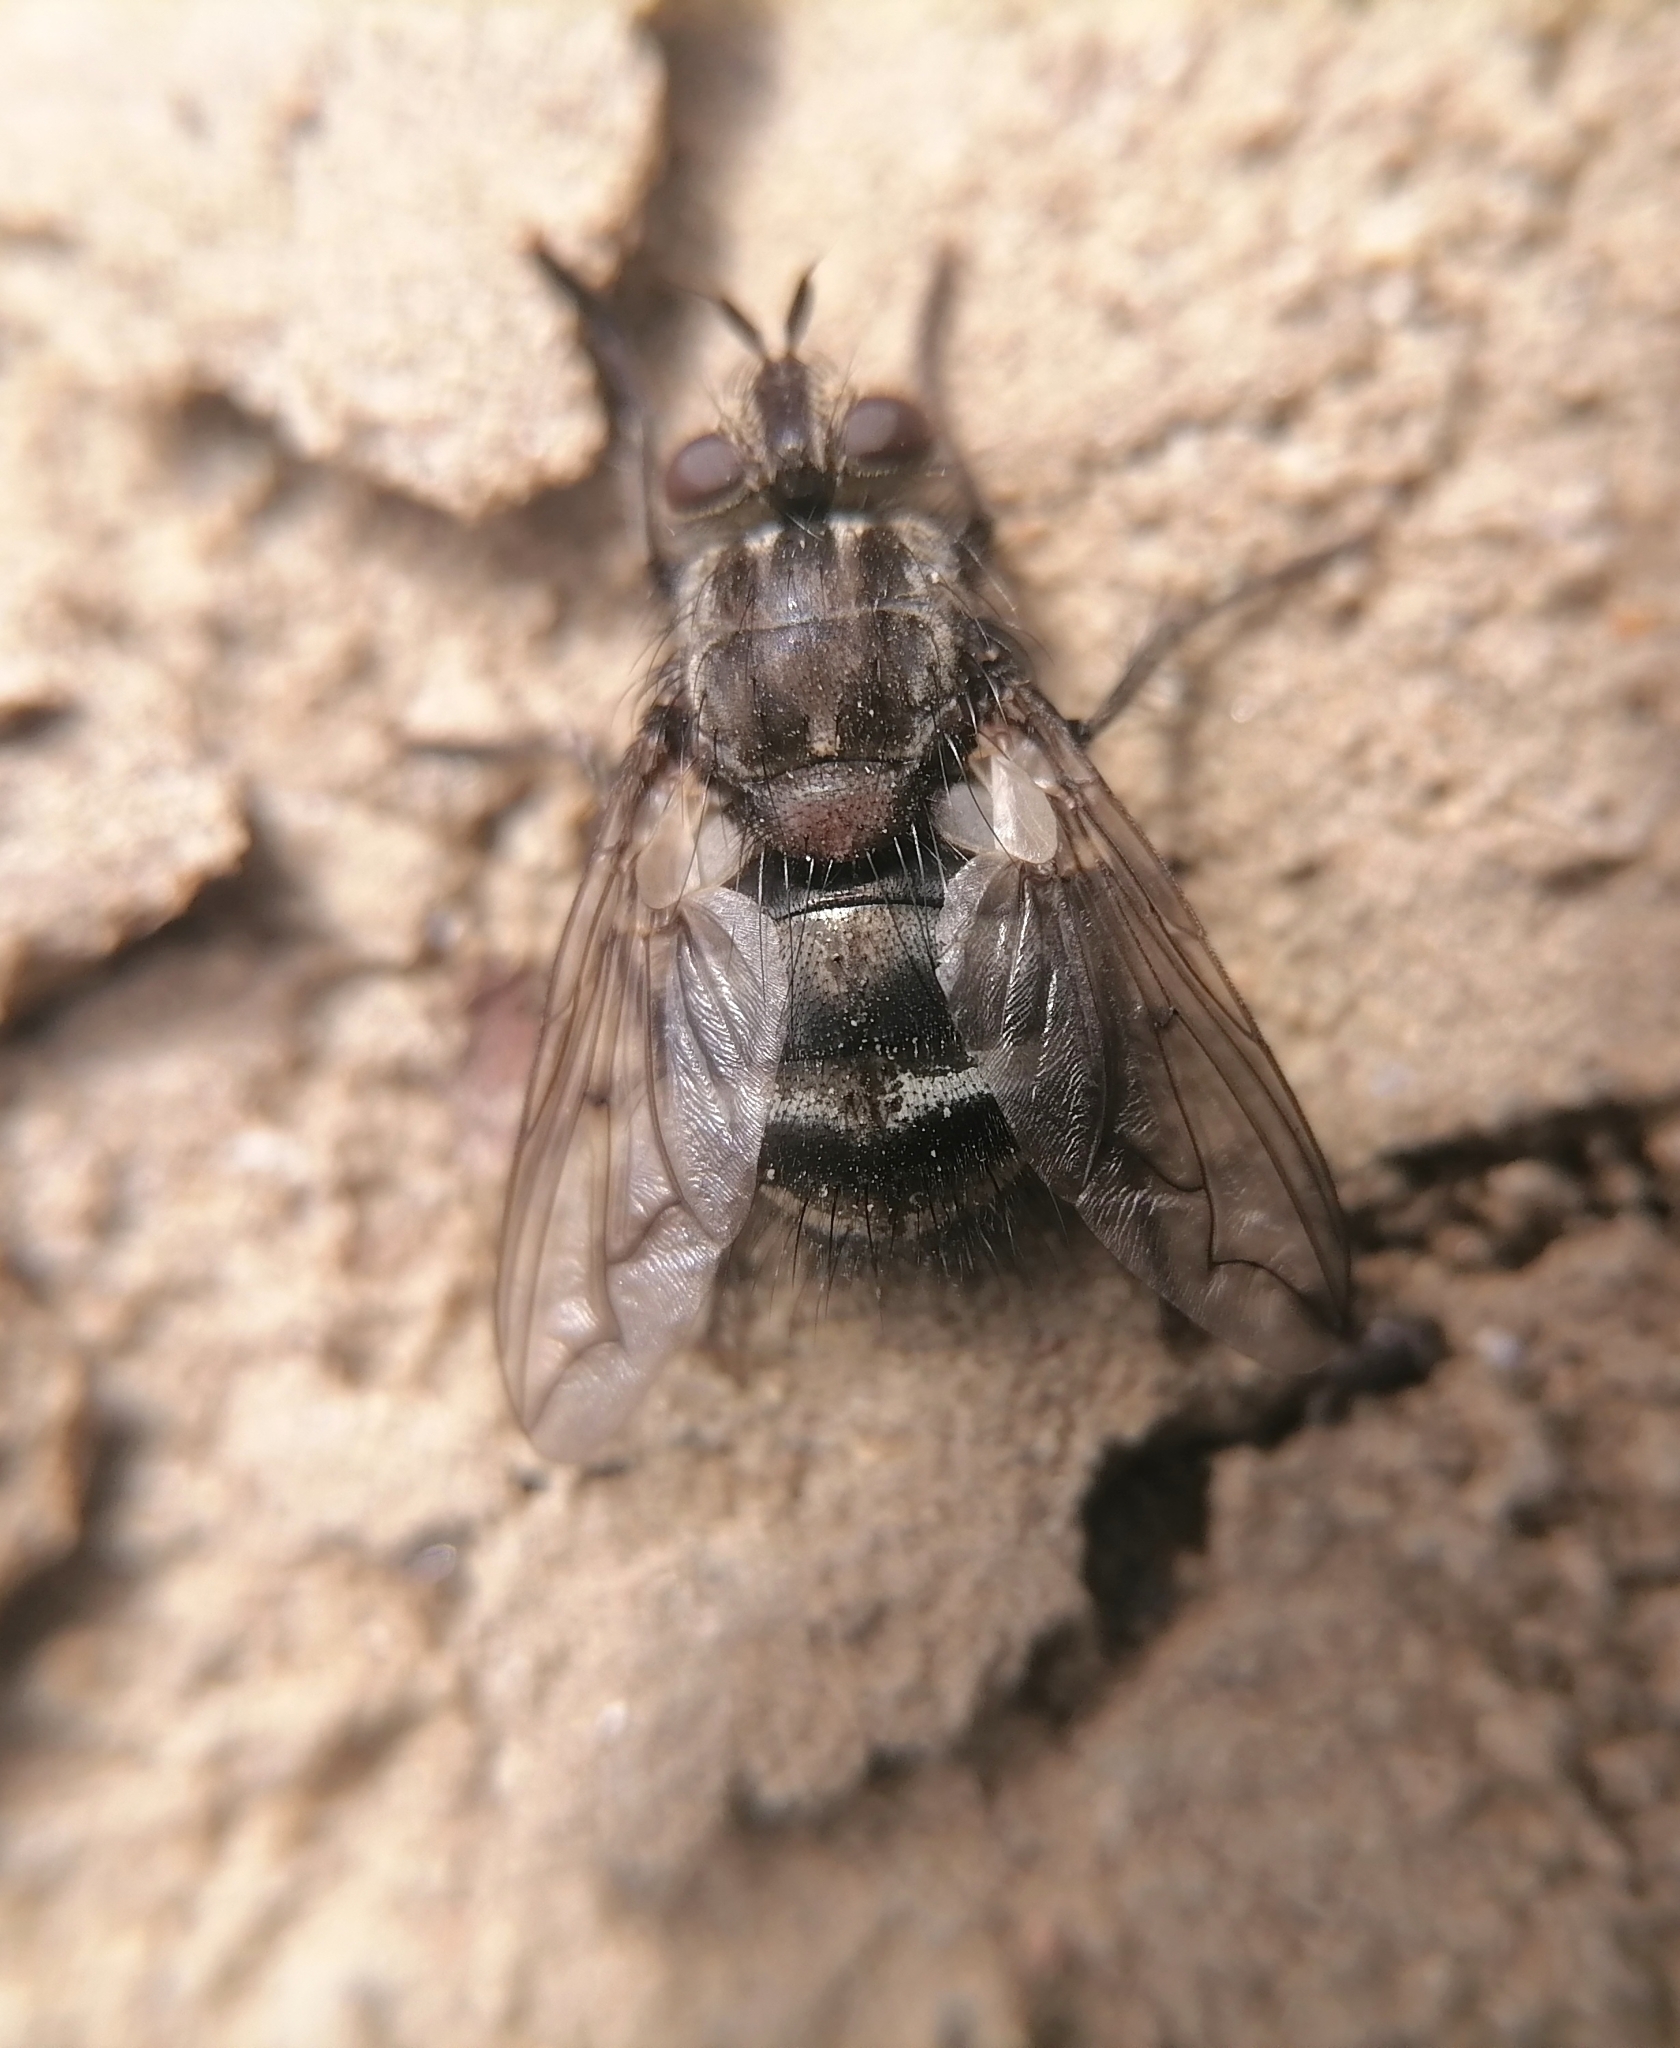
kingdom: Animalia
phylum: Arthropoda
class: Insecta
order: Diptera
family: Tachinidae
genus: Panzeria
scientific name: Panzeria puparum
